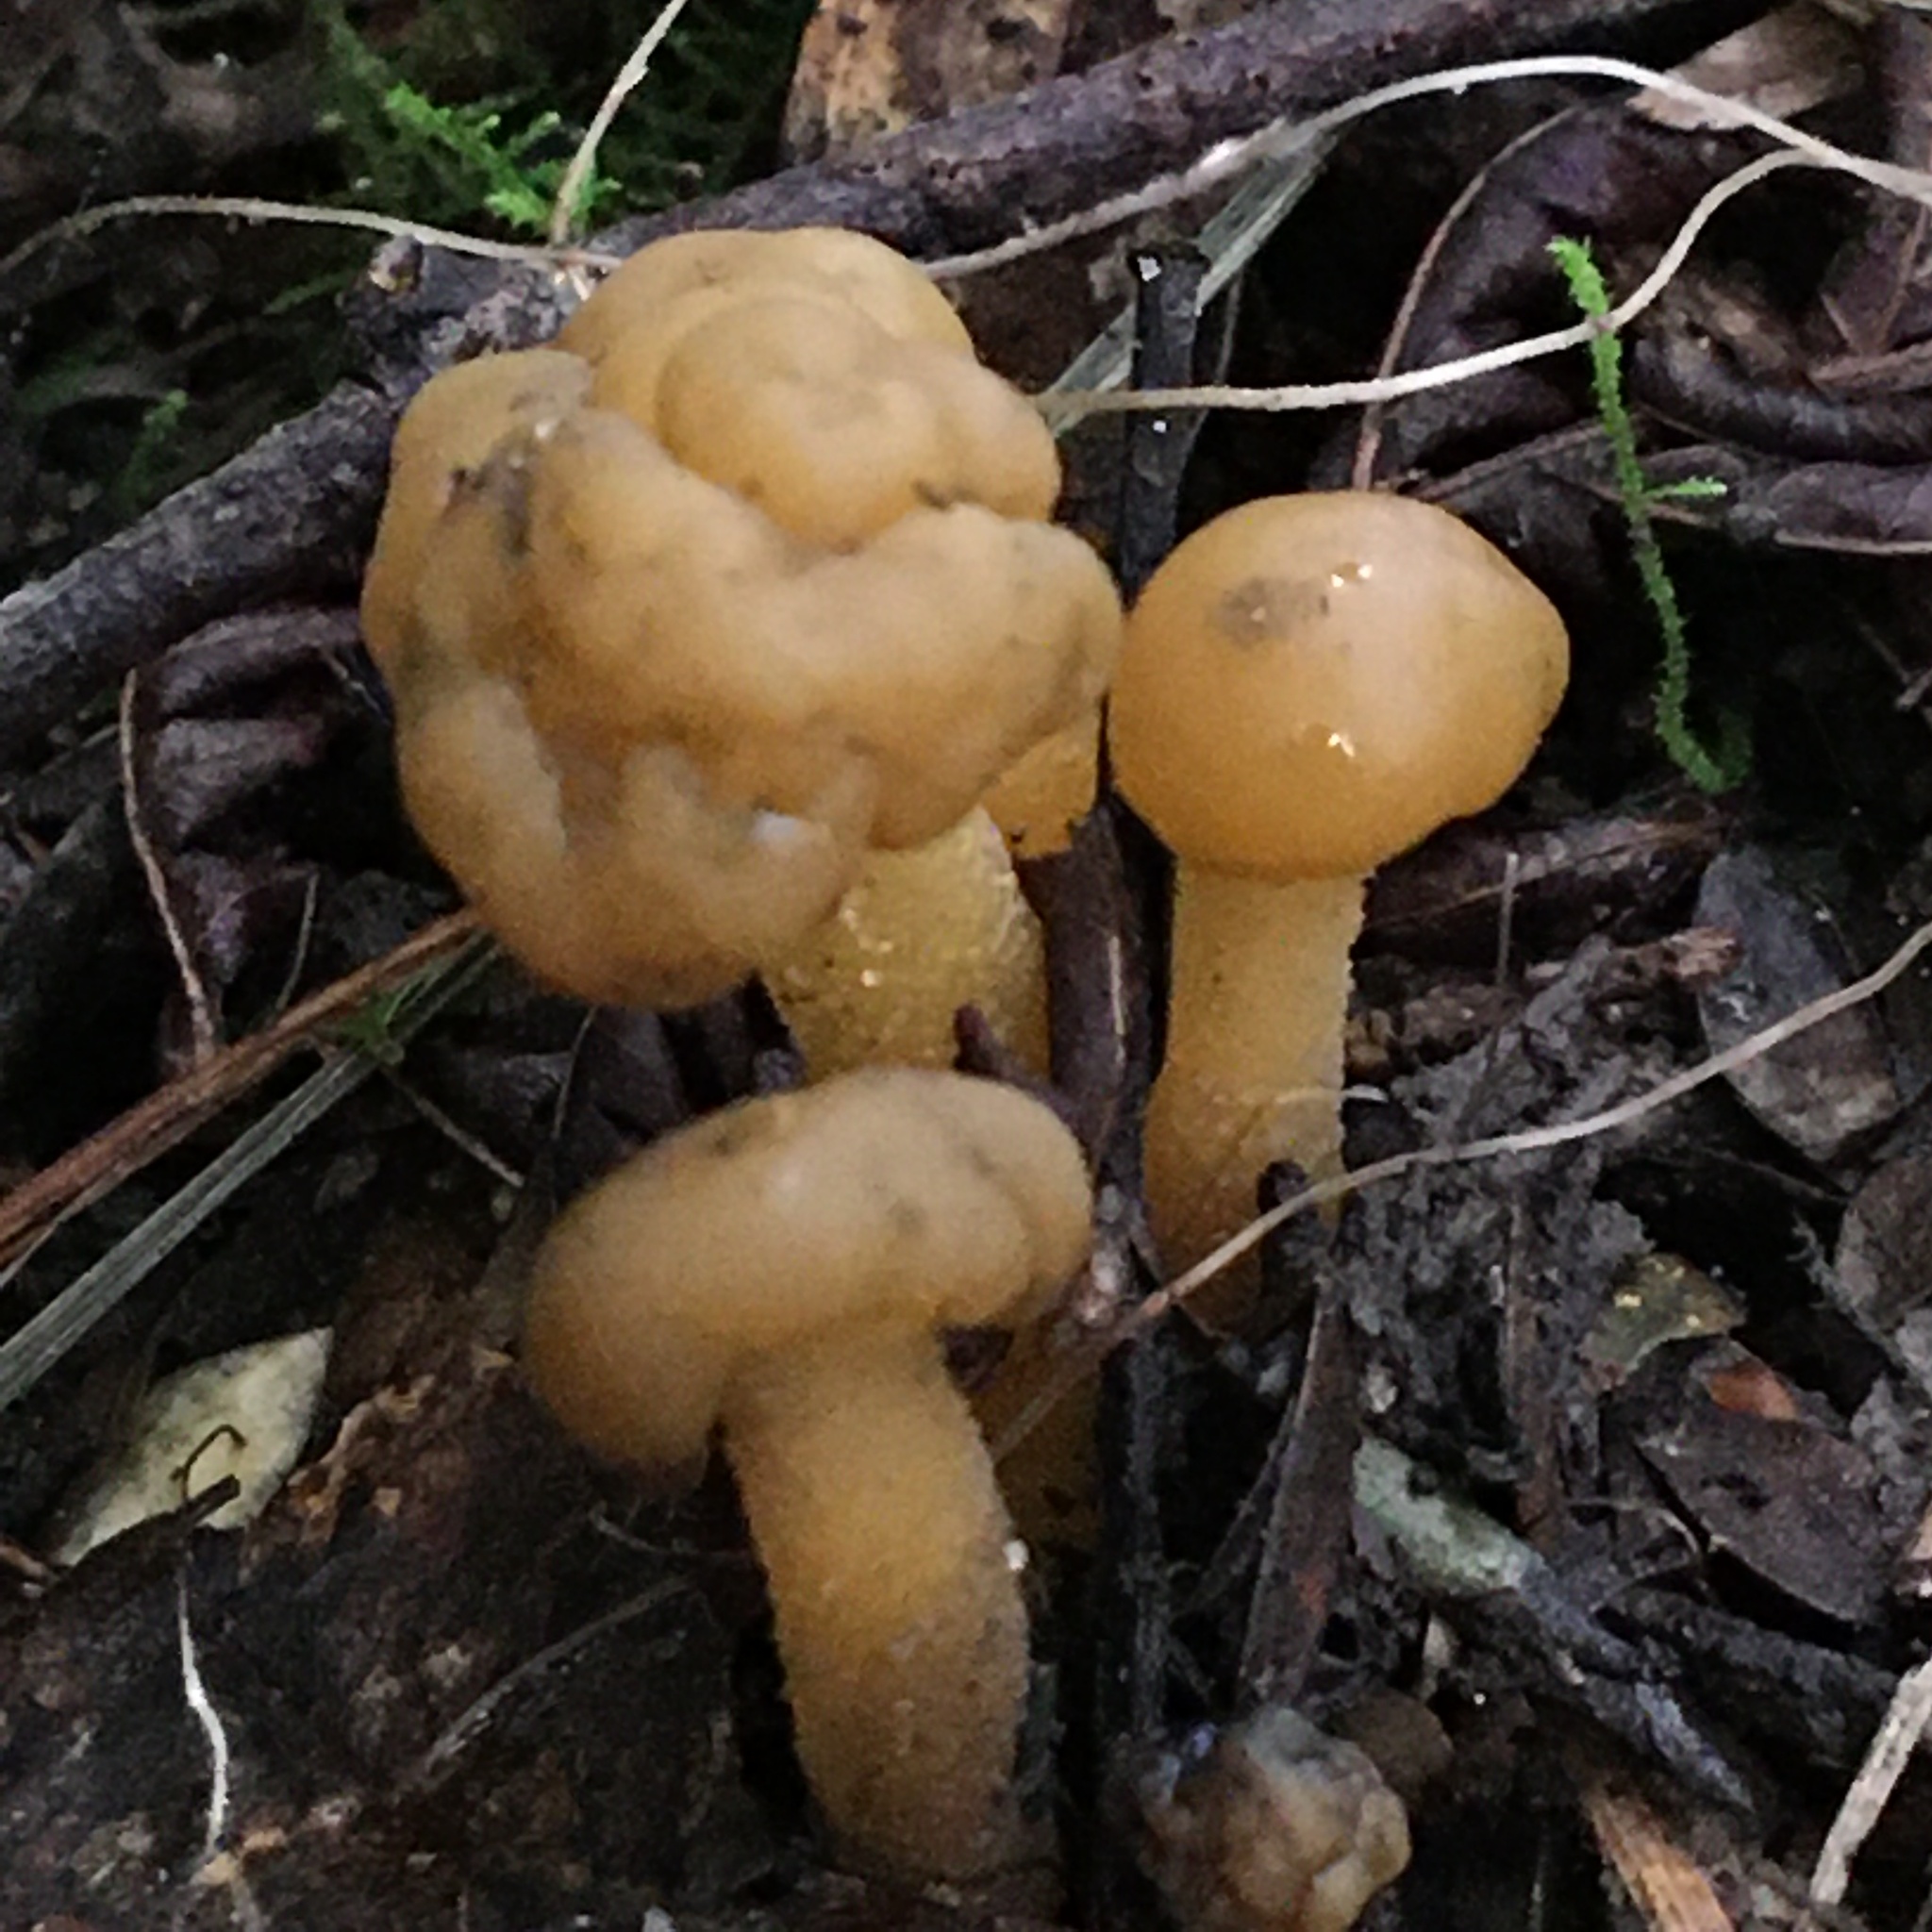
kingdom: Fungi
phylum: Ascomycota
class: Leotiomycetes
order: Leotiales
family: Leotiaceae
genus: Leotia
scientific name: Leotia lubrica
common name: Jellybaby
